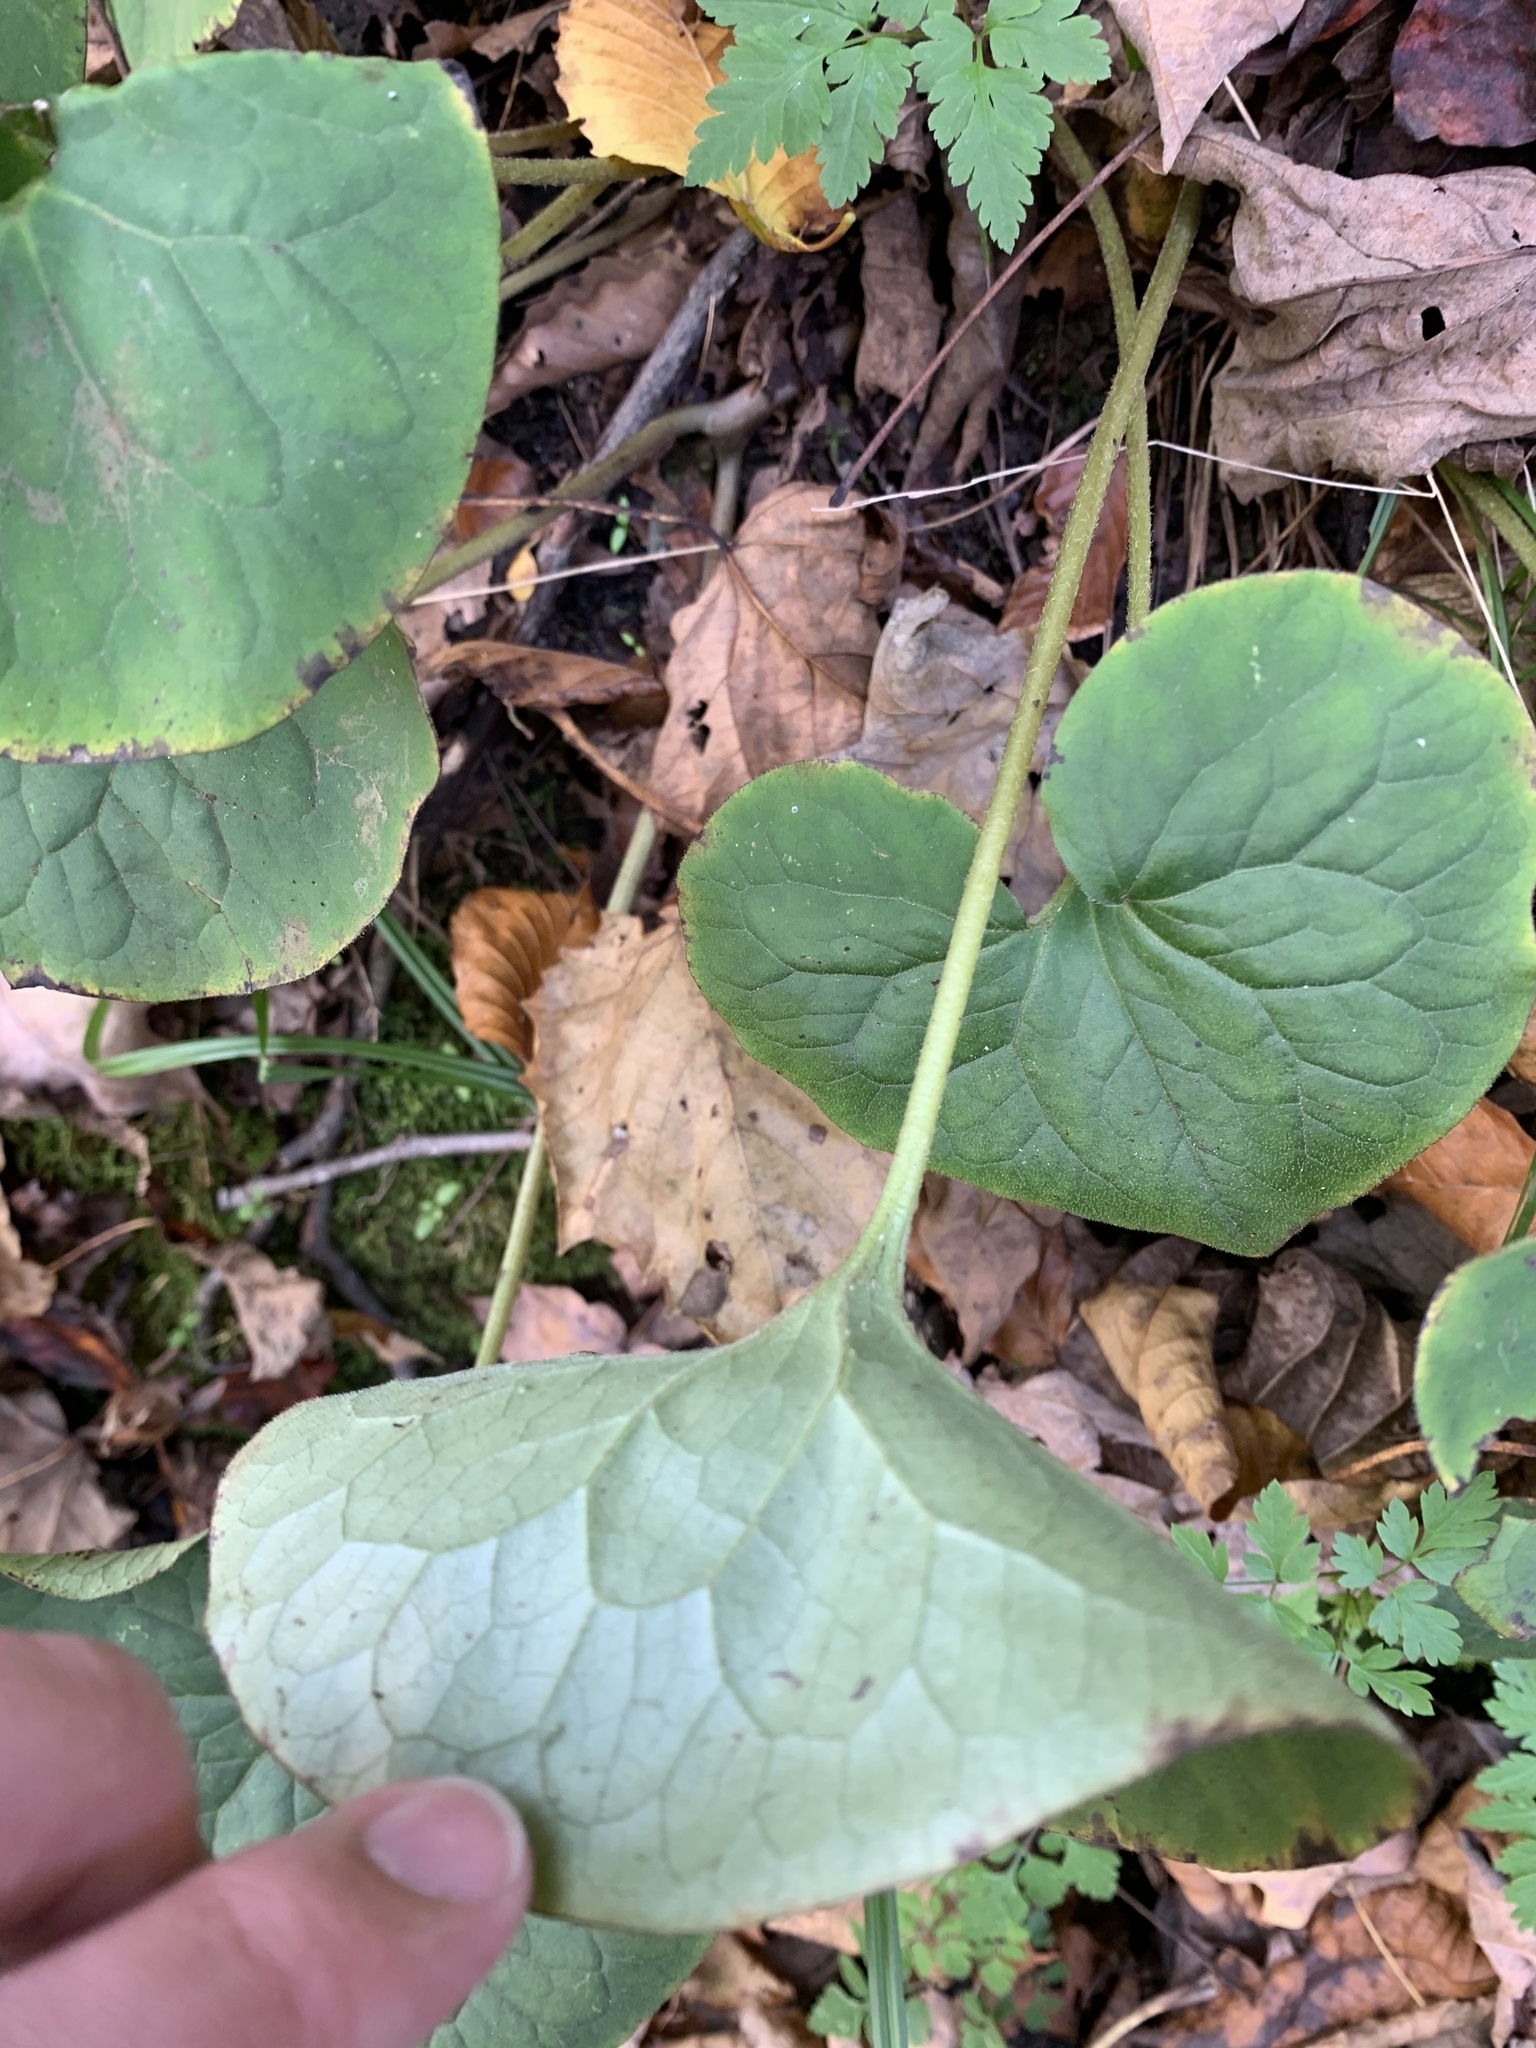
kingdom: Plantae
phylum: Tracheophyta
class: Magnoliopsida
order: Piperales
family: Aristolochiaceae
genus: Asarum
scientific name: Asarum canadense
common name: Wild ginger
